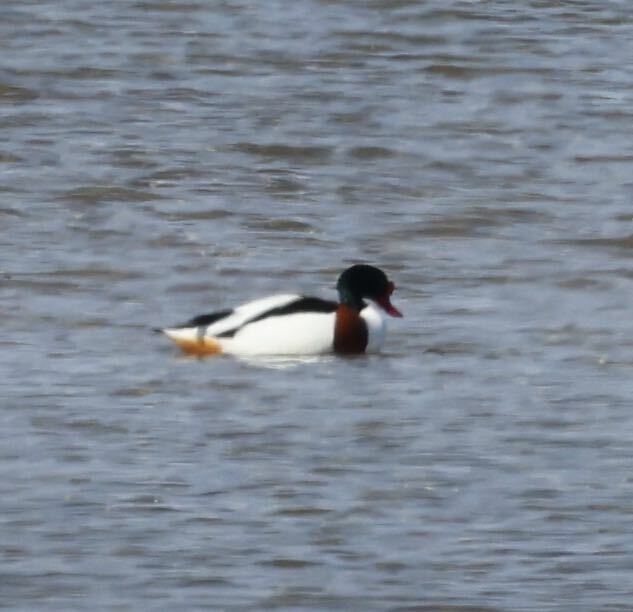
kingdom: Animalia
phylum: Chordata
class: Aves
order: Anseriformes
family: Anatidae
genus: Tadorna
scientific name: Tadorna tadorna
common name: Common shelduck
